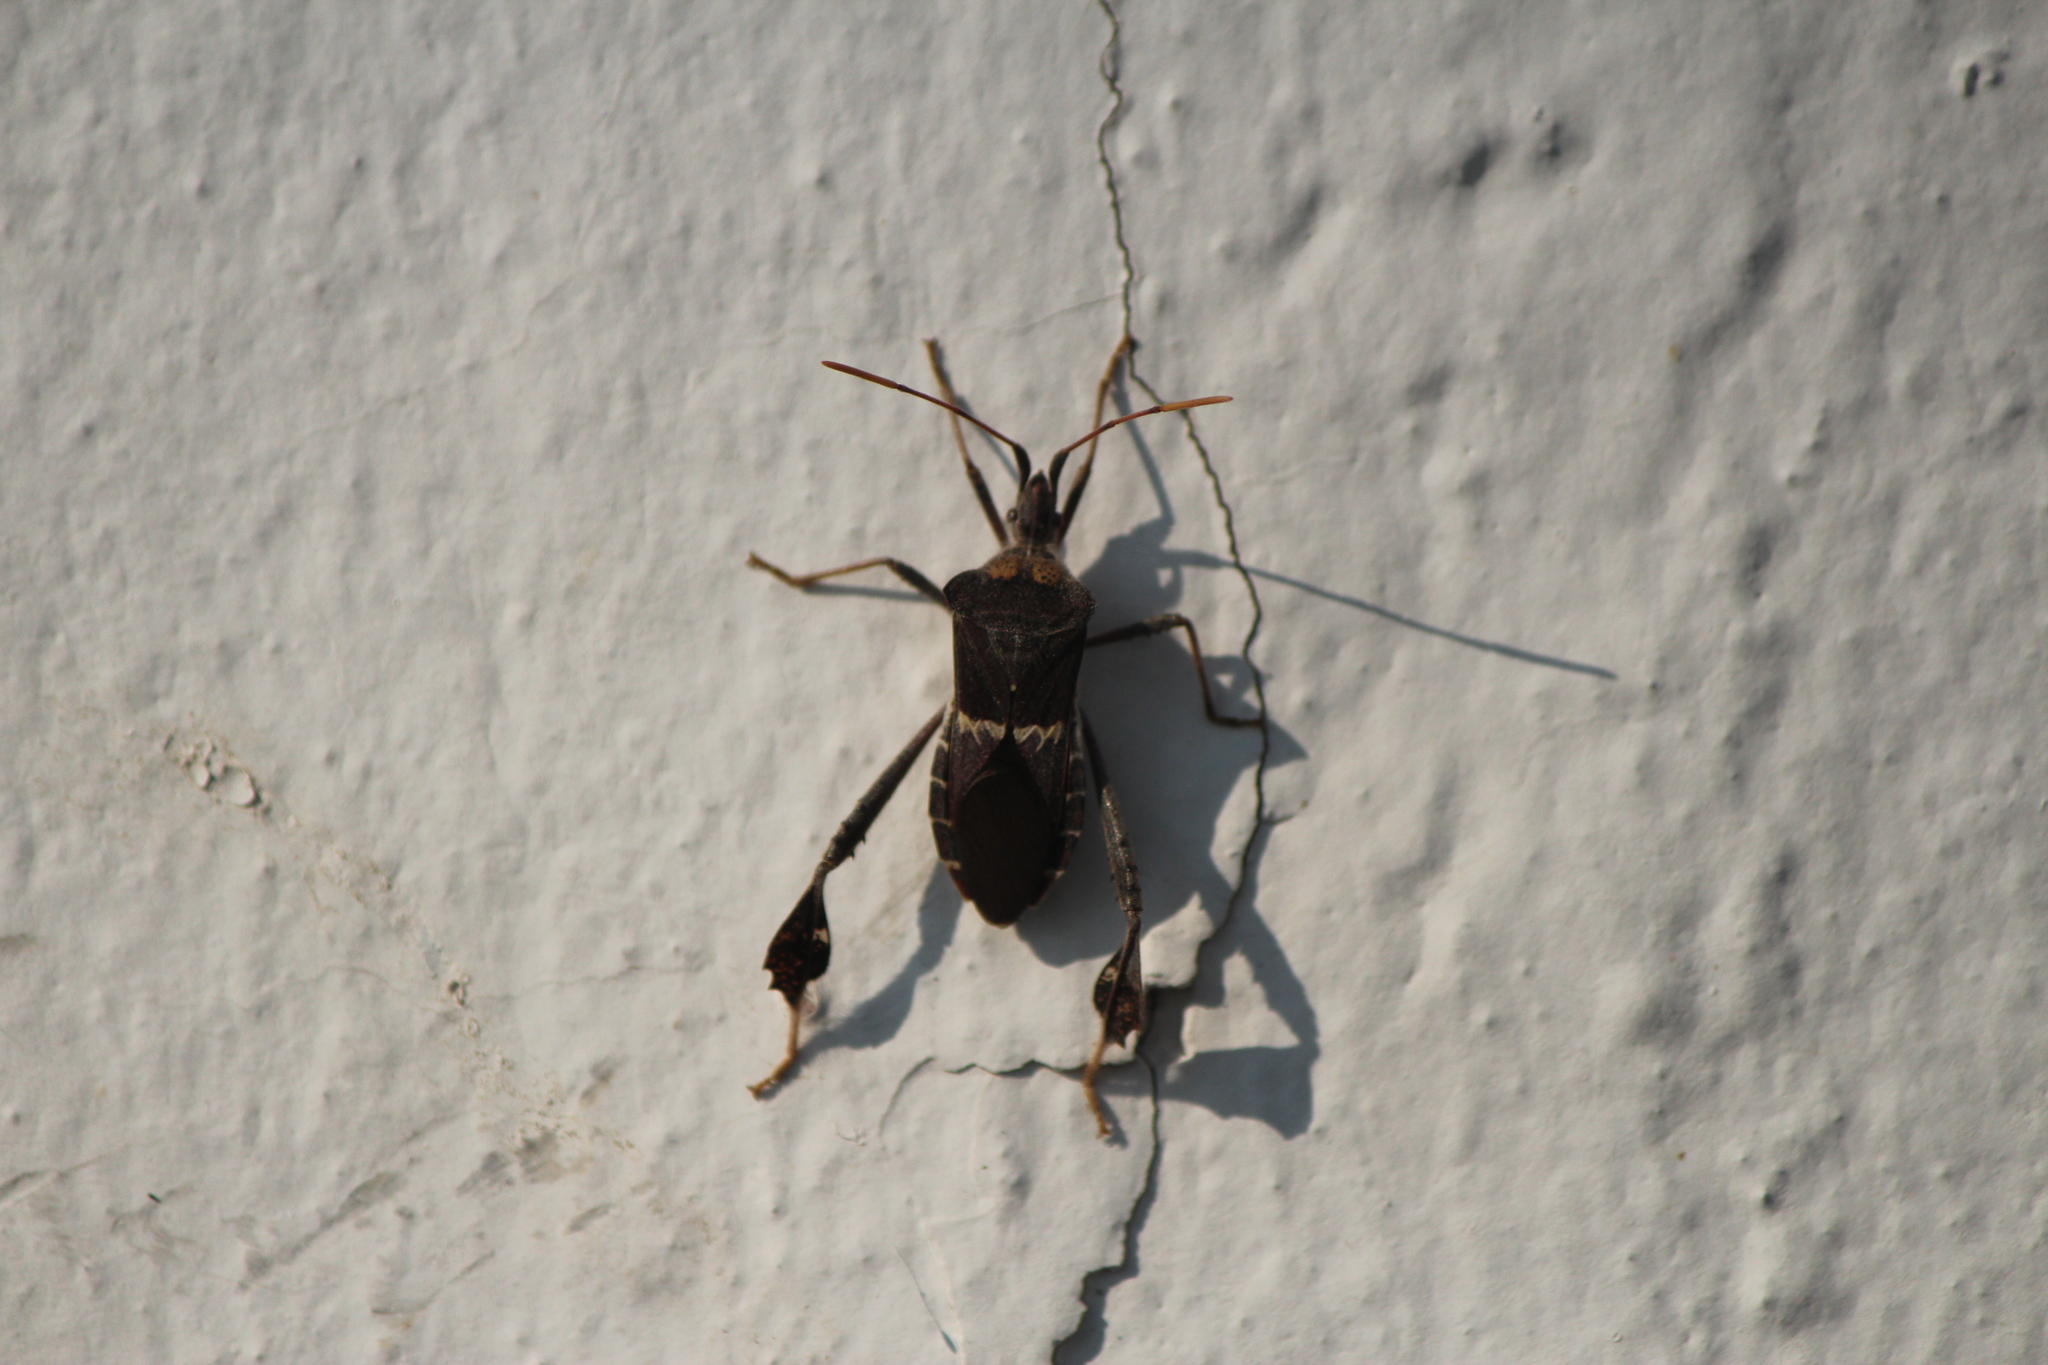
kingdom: Animalia
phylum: Arthropoda
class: Insecta
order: Hemiptera
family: Coreidae
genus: Leptoglossus
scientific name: Leptoglossus zonatus
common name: Large-legged bug
